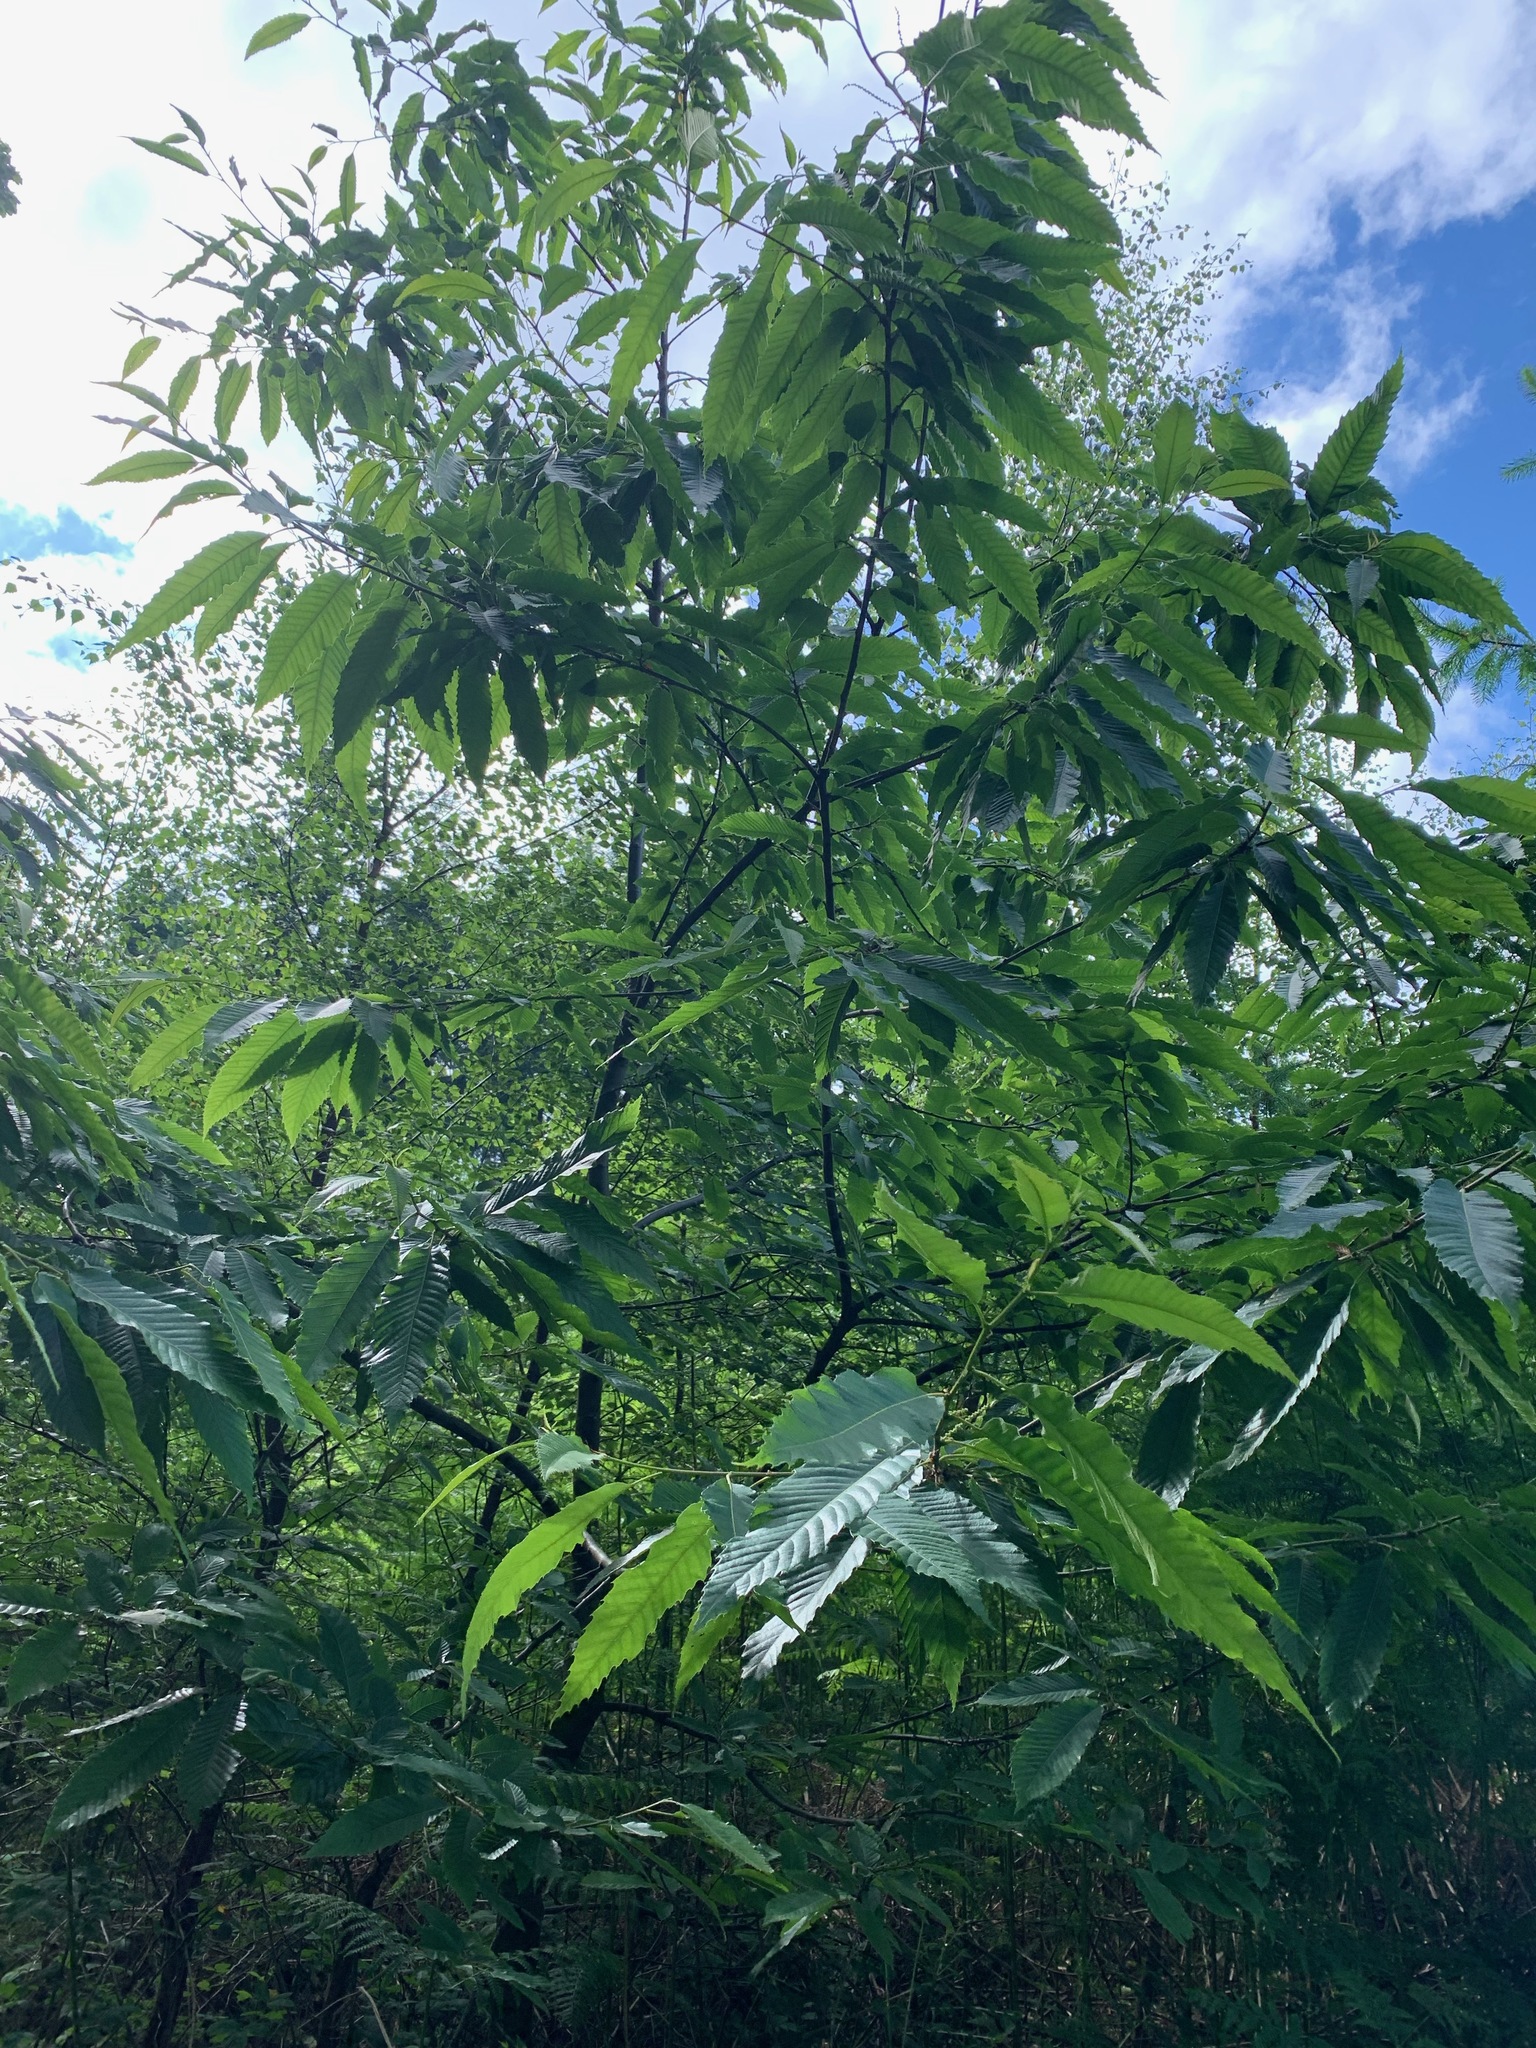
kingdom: Plantae
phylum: Tracheophyta
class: Magnoliopsida
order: Fagales
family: Fagaceae
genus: Castanea
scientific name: Castanea sativa
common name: Sweet chestnut
